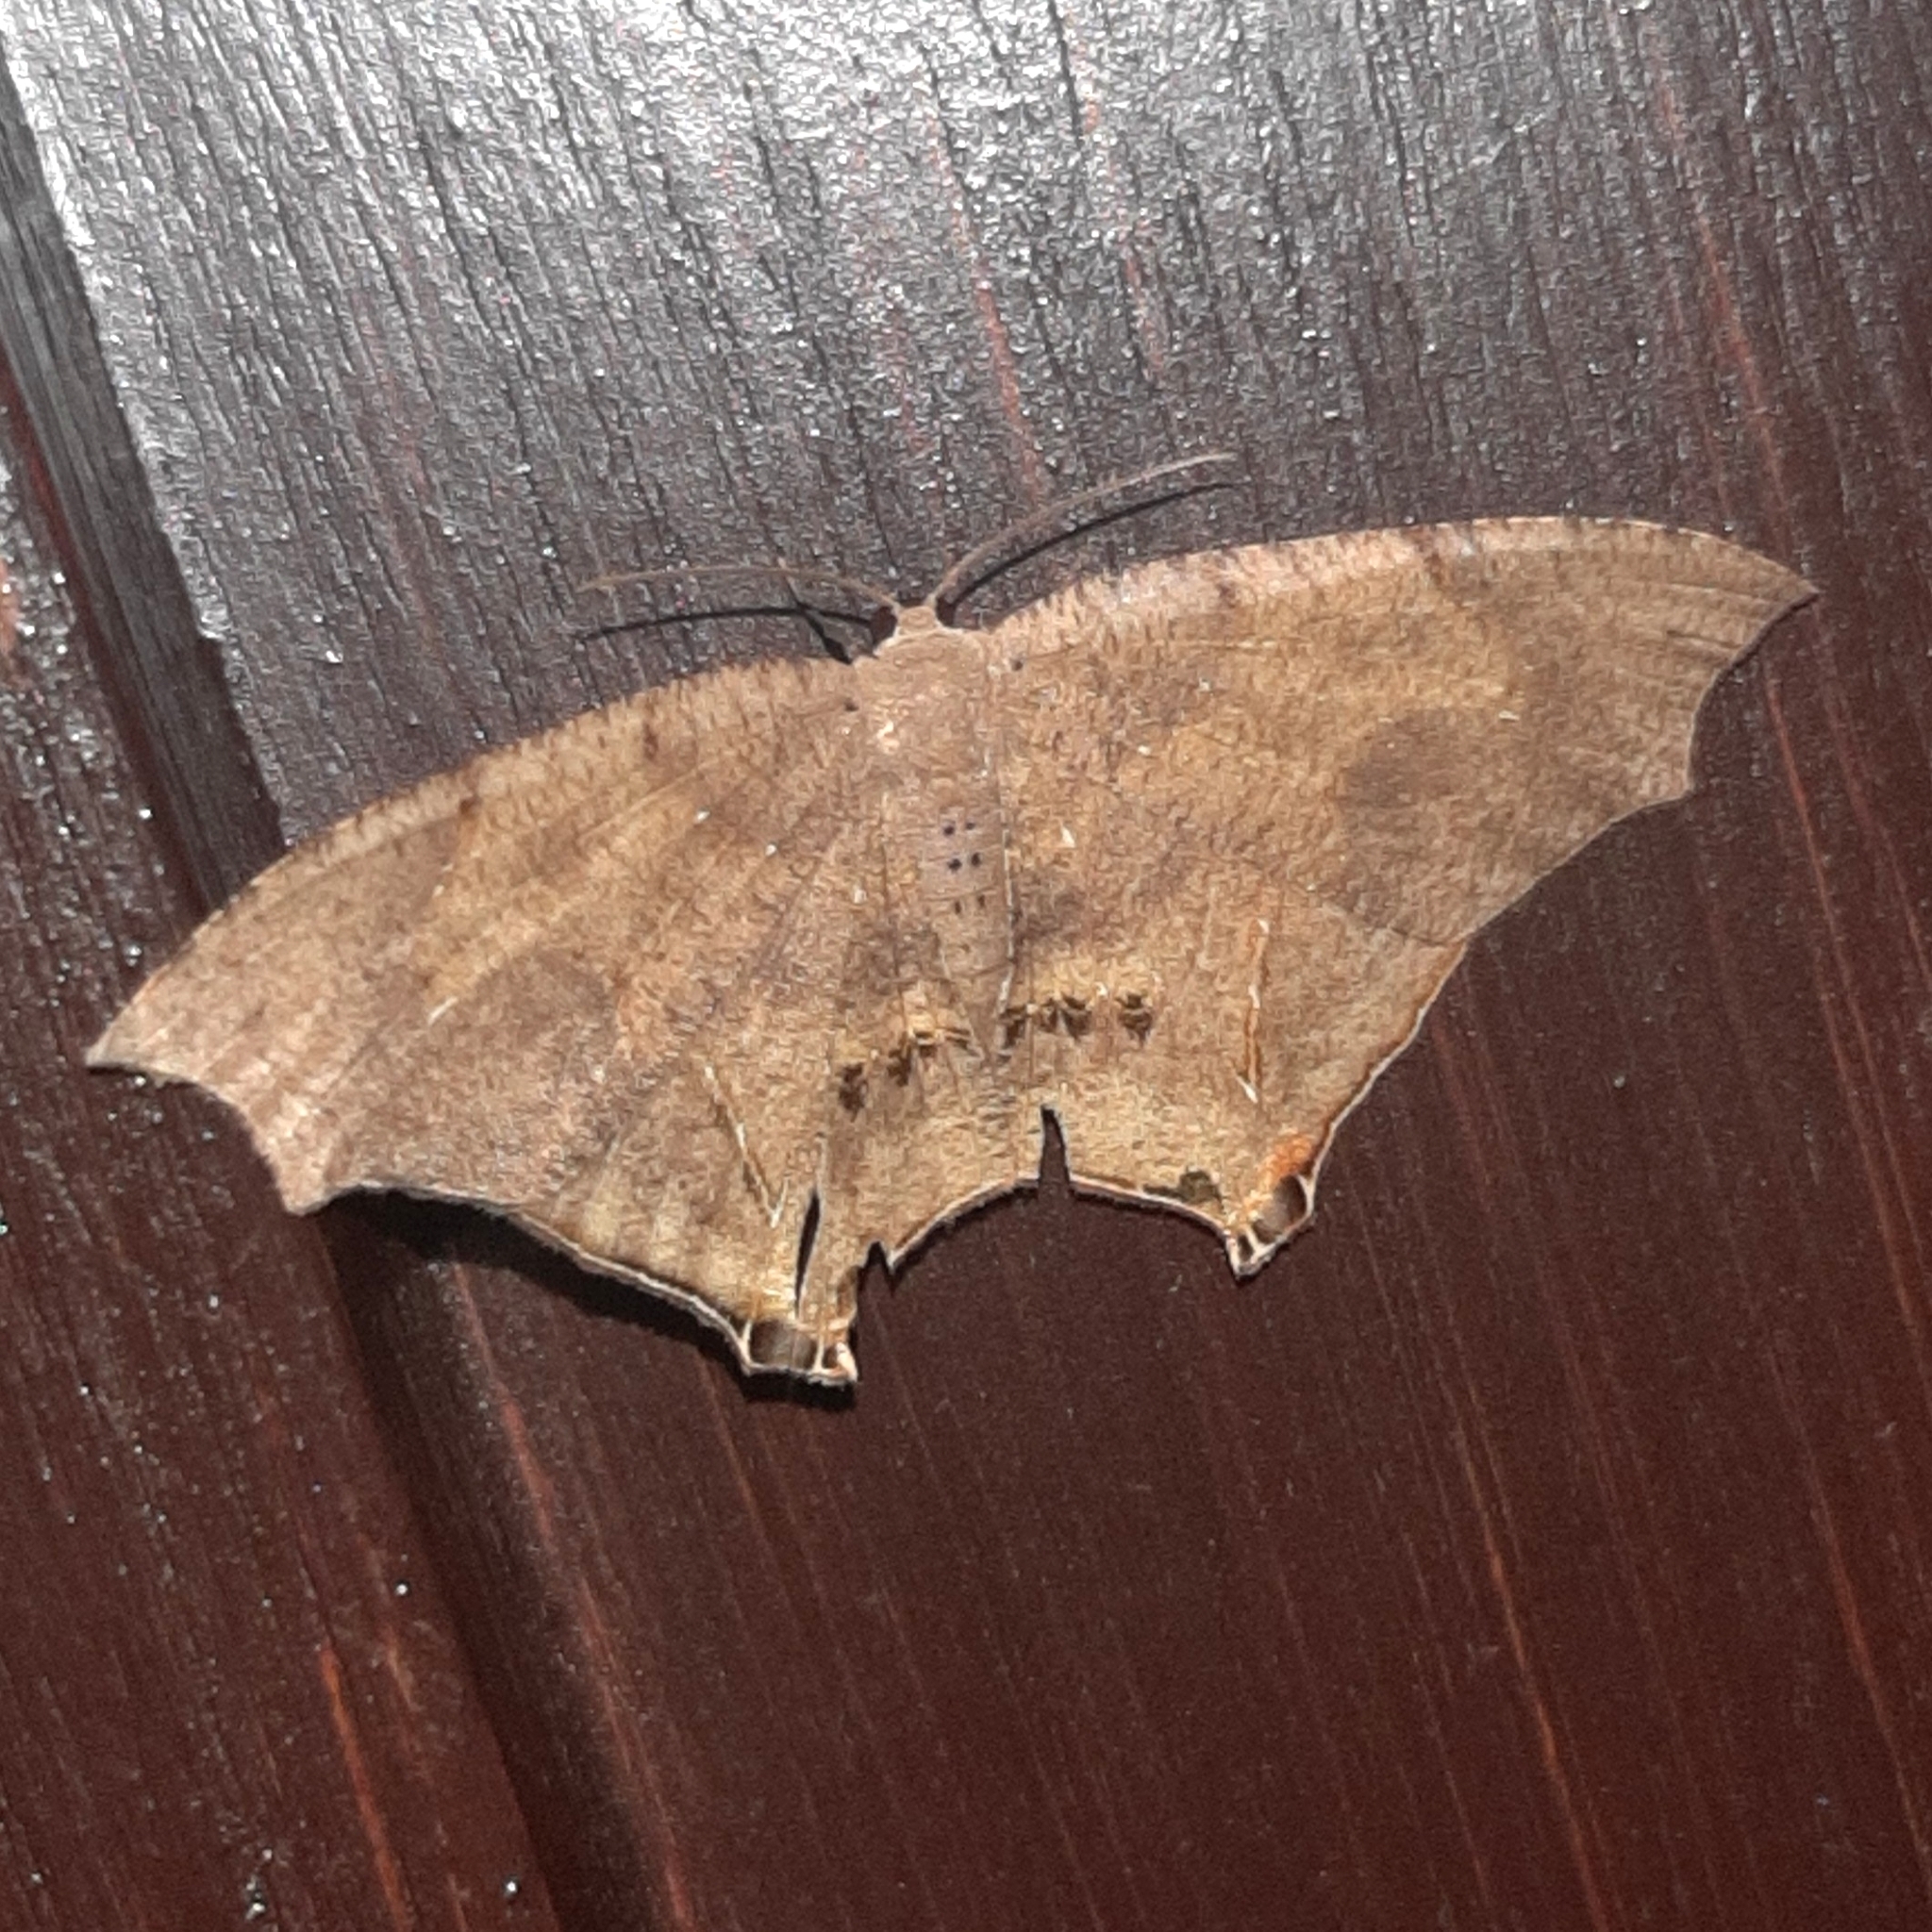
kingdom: Animalia
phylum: Arthropoda
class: Insecta
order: Lepidoptera
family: Uraniidae
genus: Psamathia
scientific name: Psamathia amplata
